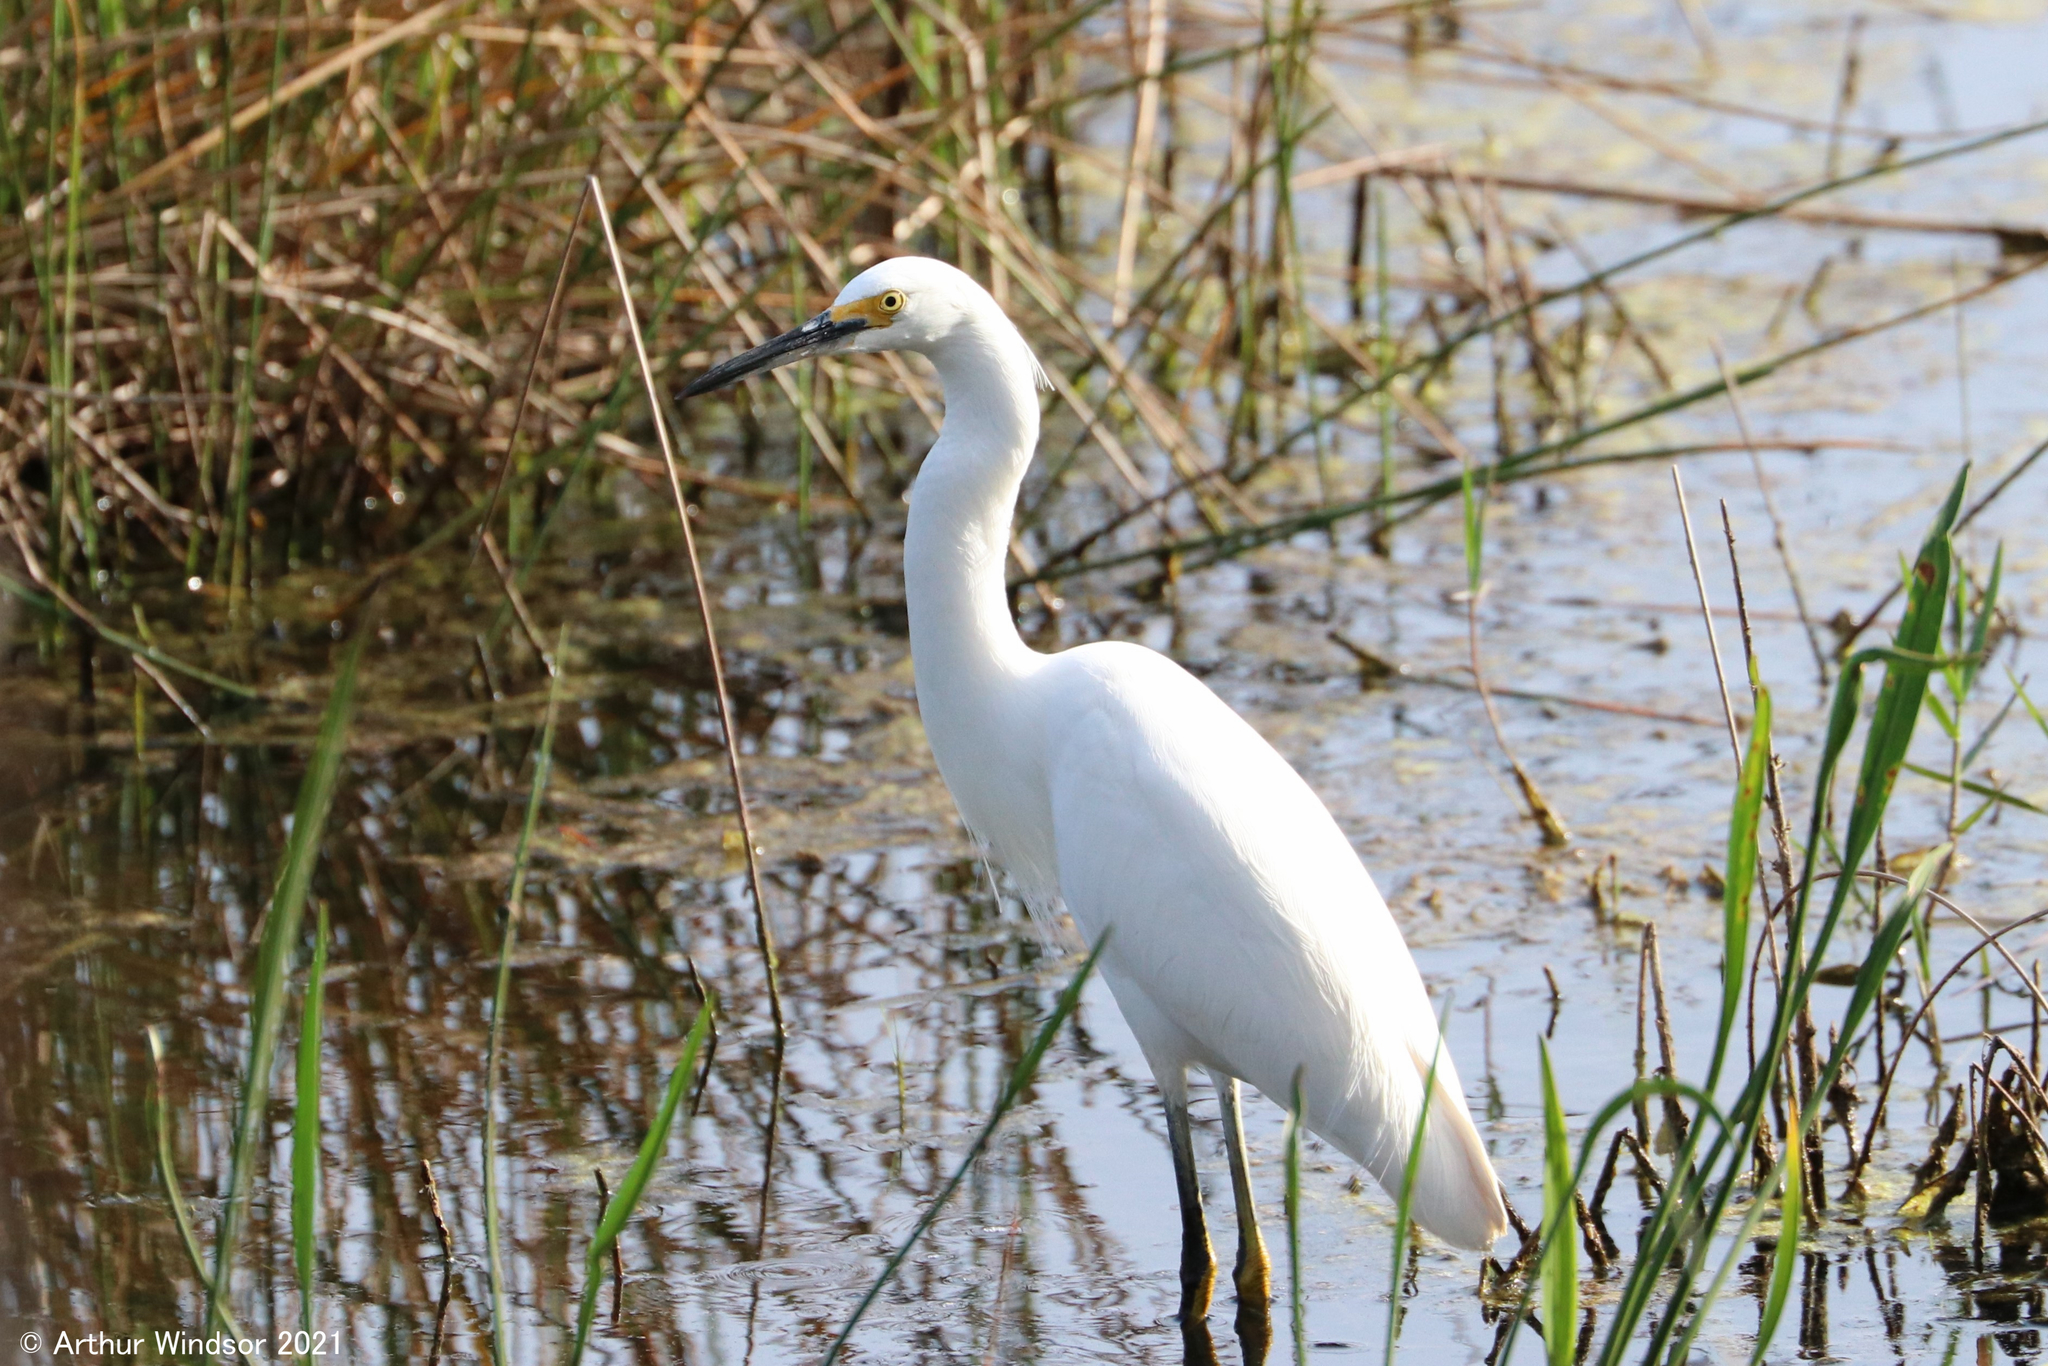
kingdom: Animalia
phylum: Chordata
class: Aves
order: Pelecaniformes
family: Ardeidae
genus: Egretta
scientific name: Egretta thula
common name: Snowy egret
